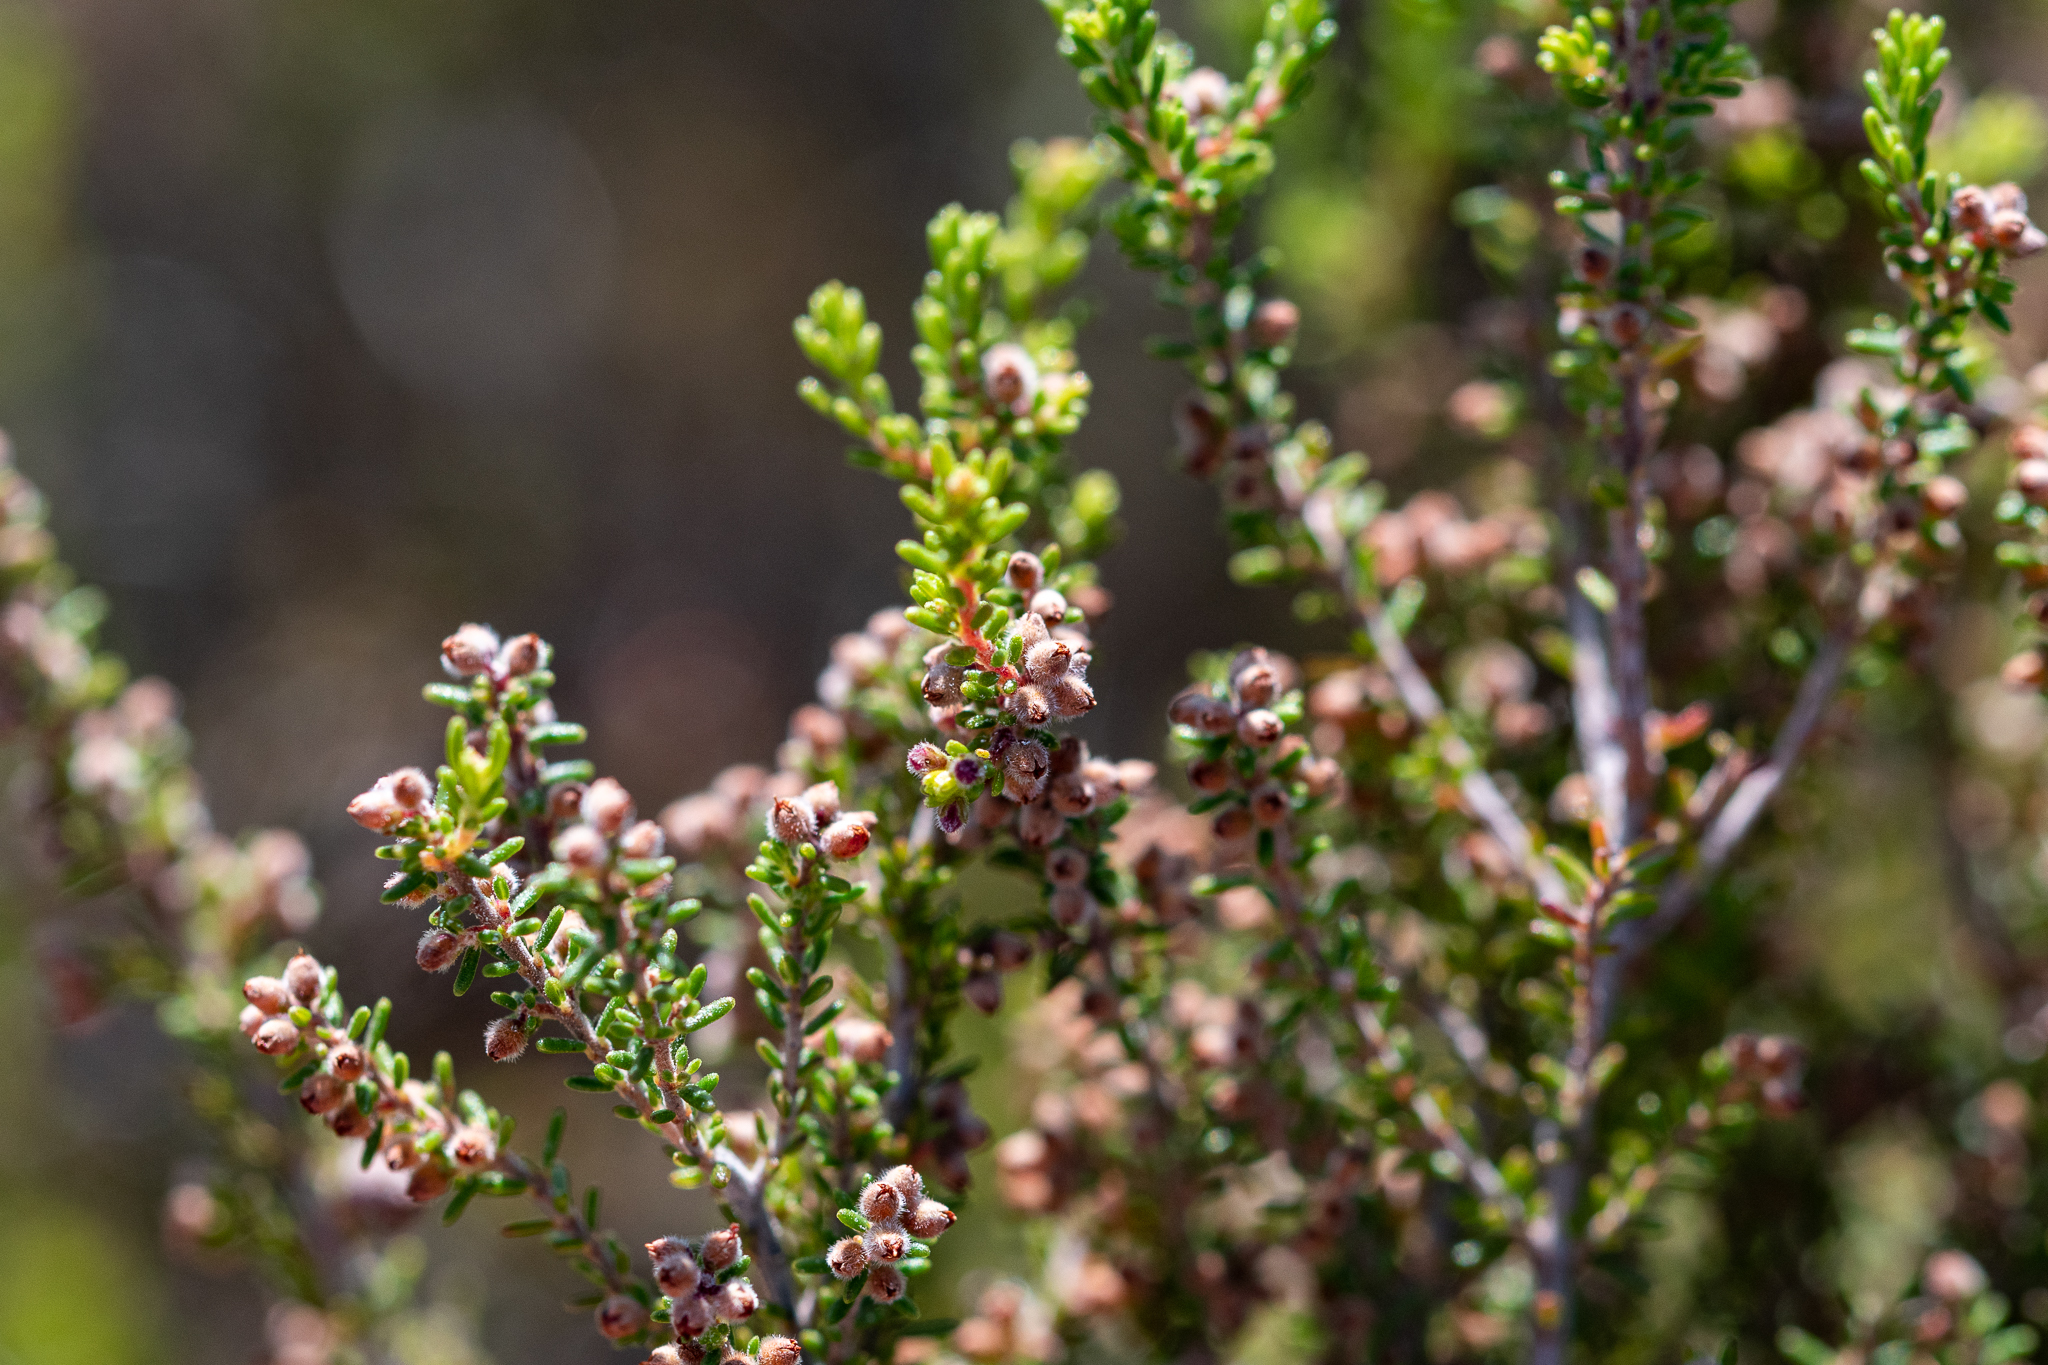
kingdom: Plantae
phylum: Tracheophyta
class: Magnoliopsida
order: Ericales
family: Ericaceae
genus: Erica
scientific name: Erica puberuliflora
